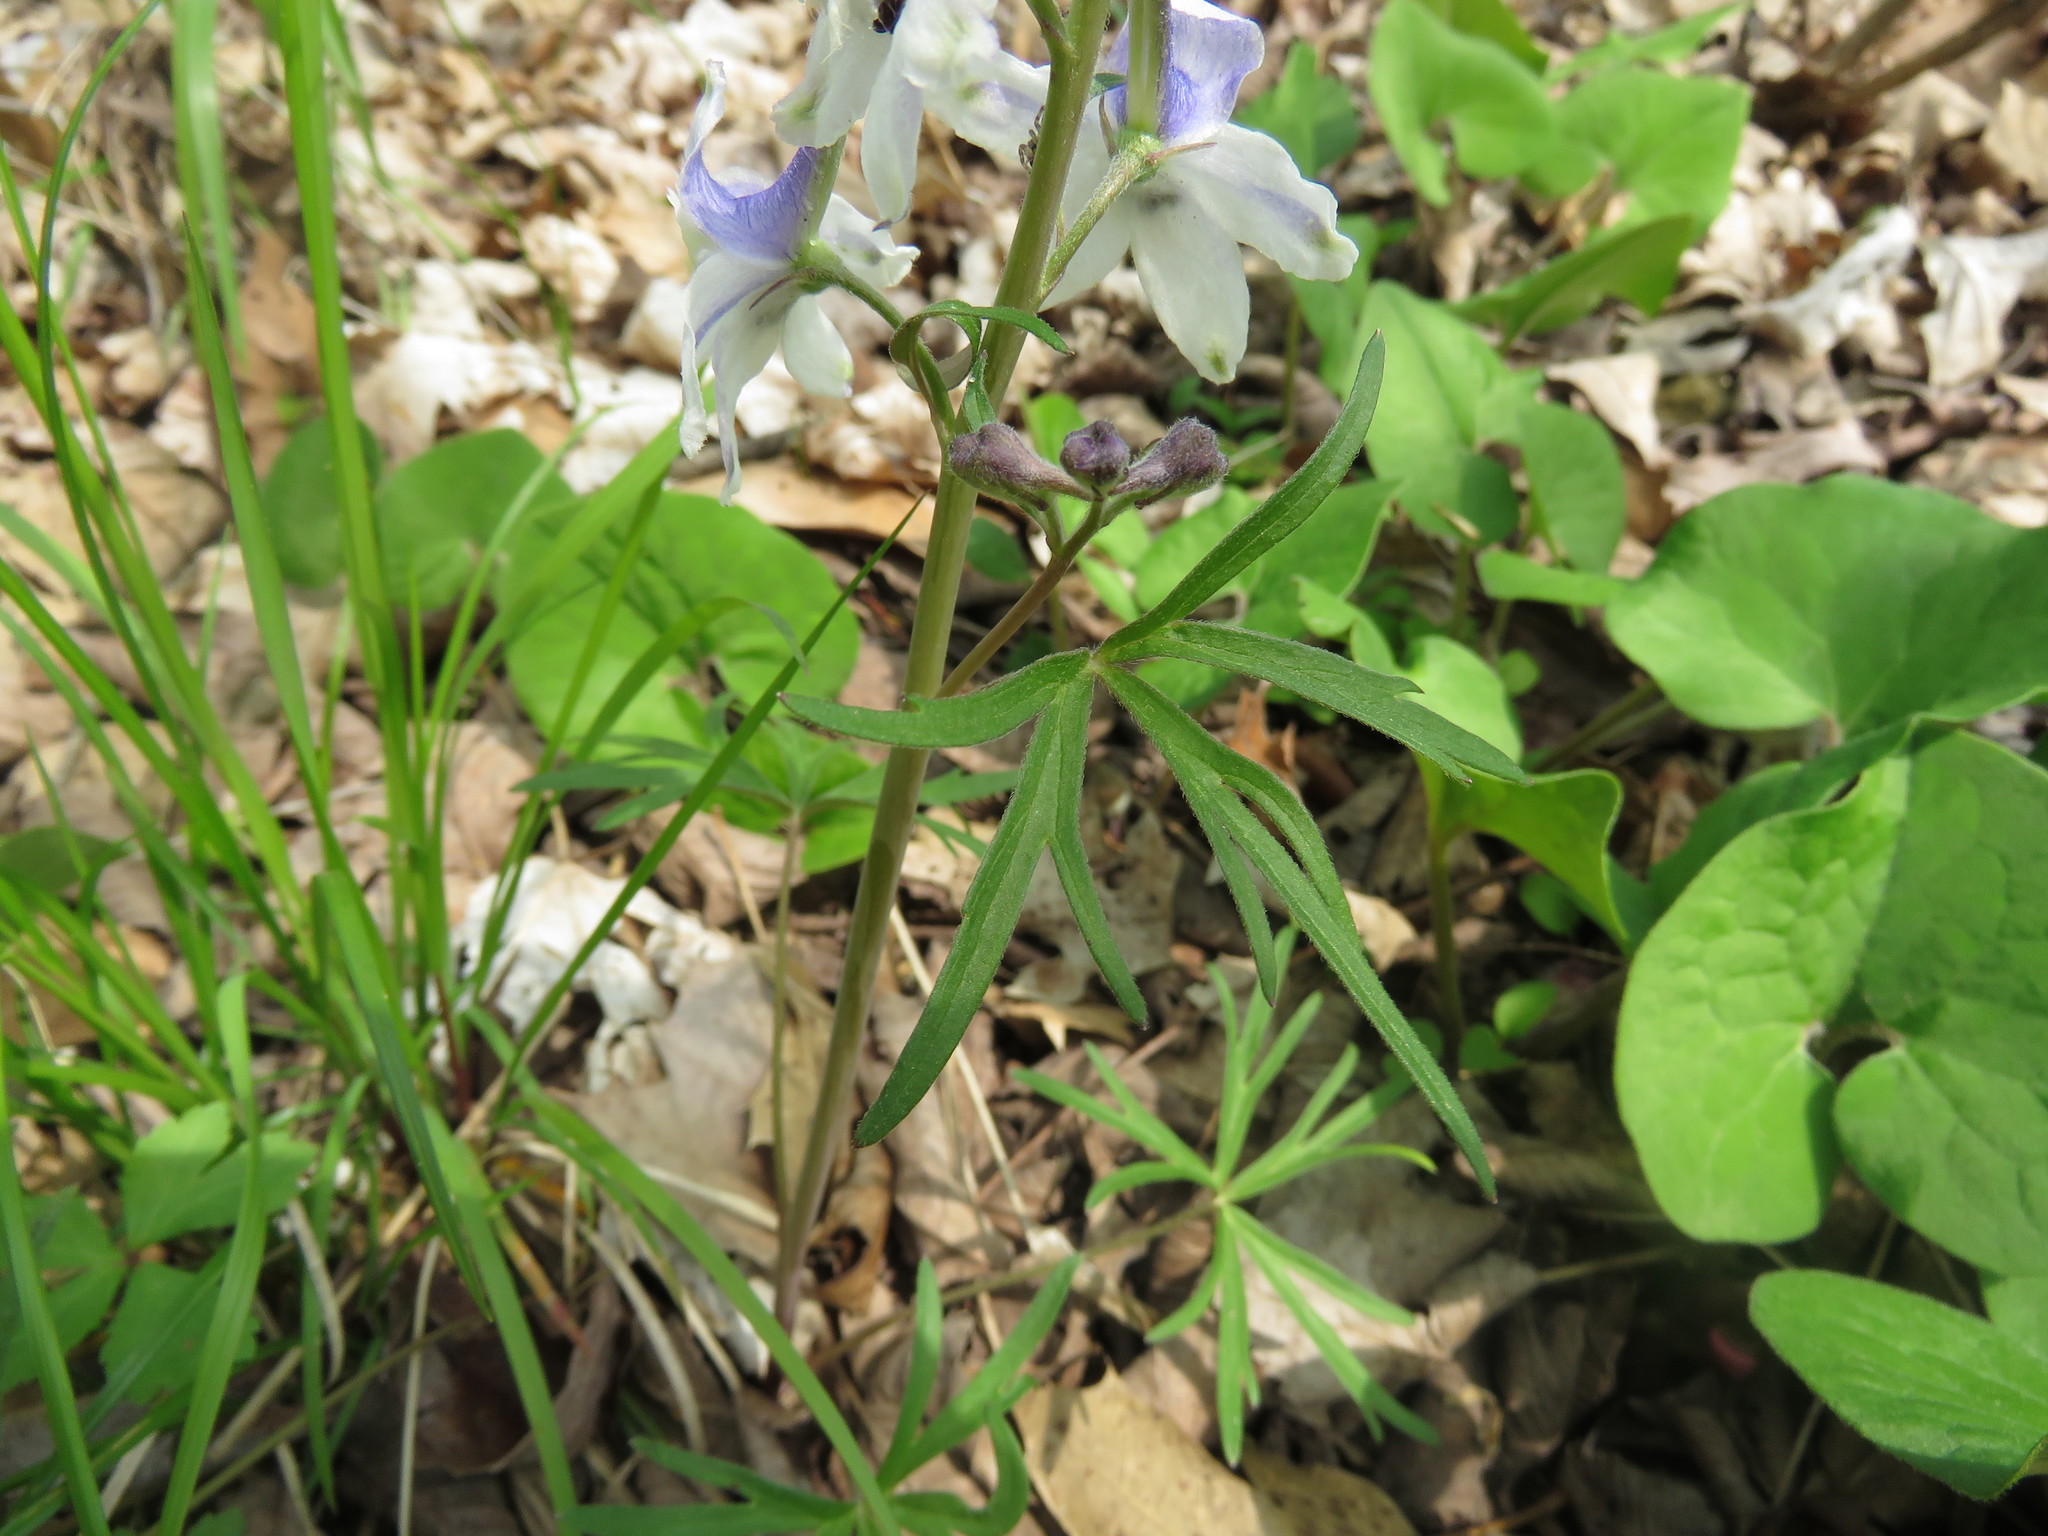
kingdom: Plantae
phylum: Tracheophyta
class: Magnoliopsida
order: Ranunculales
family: Ranunculaceae
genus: Delphinium
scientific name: Delphinium tricorne
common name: Dwarf larkspur
